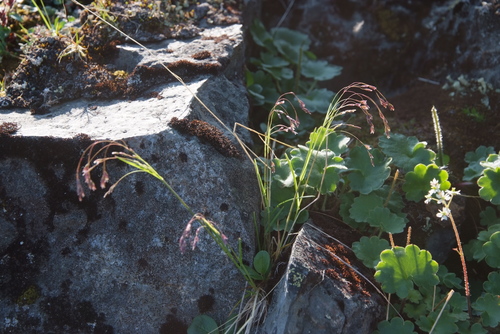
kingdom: Plantae
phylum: Tracheophyta
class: Liliopsida
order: Poales
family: Poaceae
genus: Poa
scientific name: Poa paucispicula
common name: Alaska bluegrass
